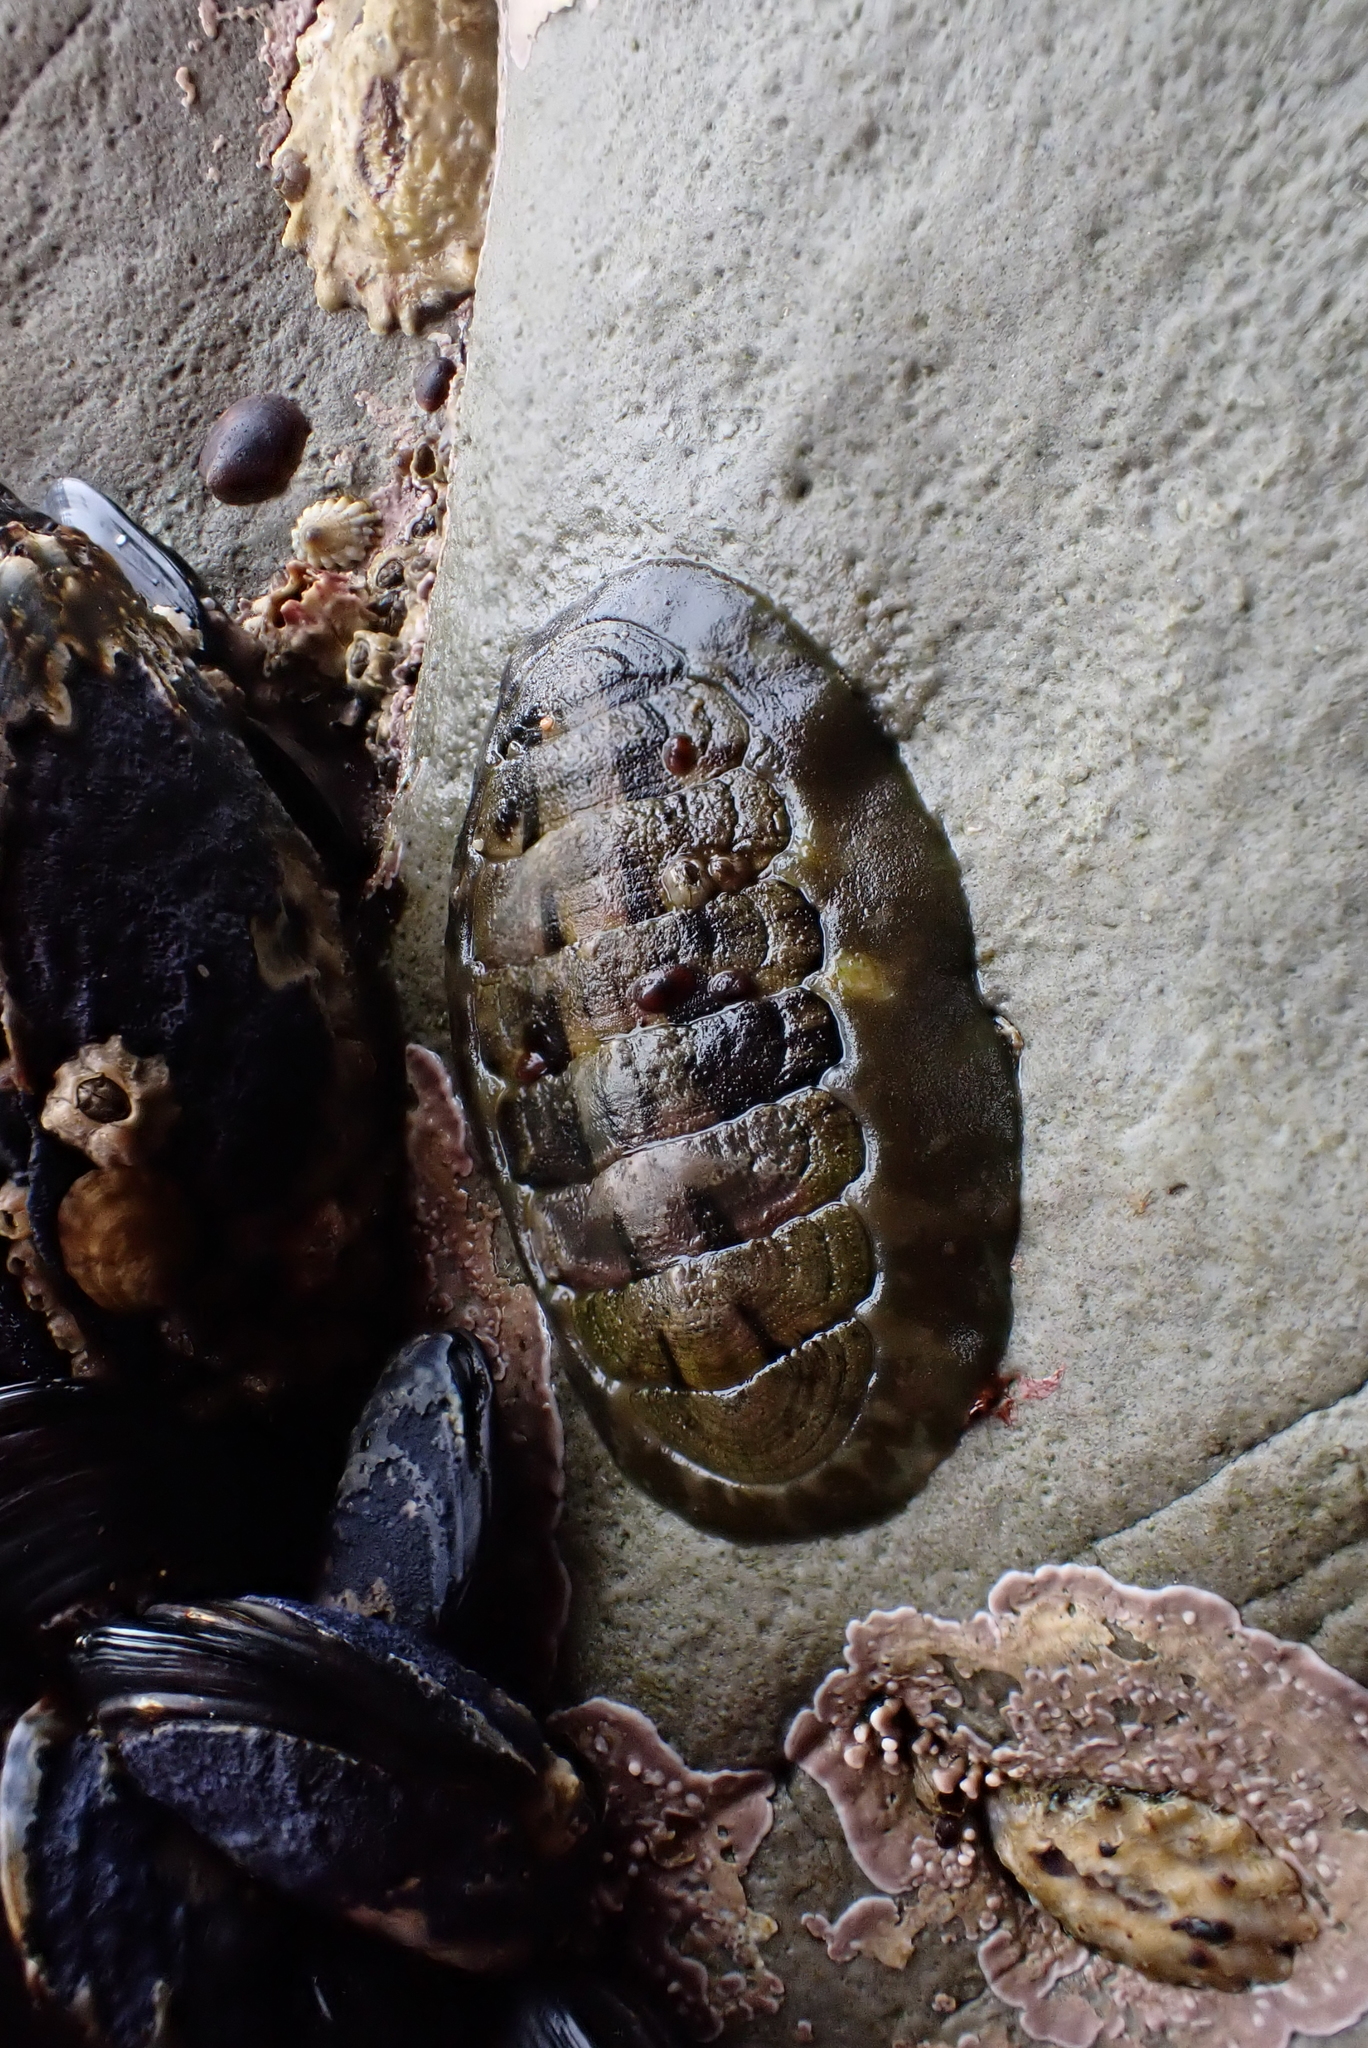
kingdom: Animalia
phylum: Mollusca
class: Polyplacophora
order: Chitonida
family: Tonicellidae
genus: Cyanoplax
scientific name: Cyanoplax hartwegii
